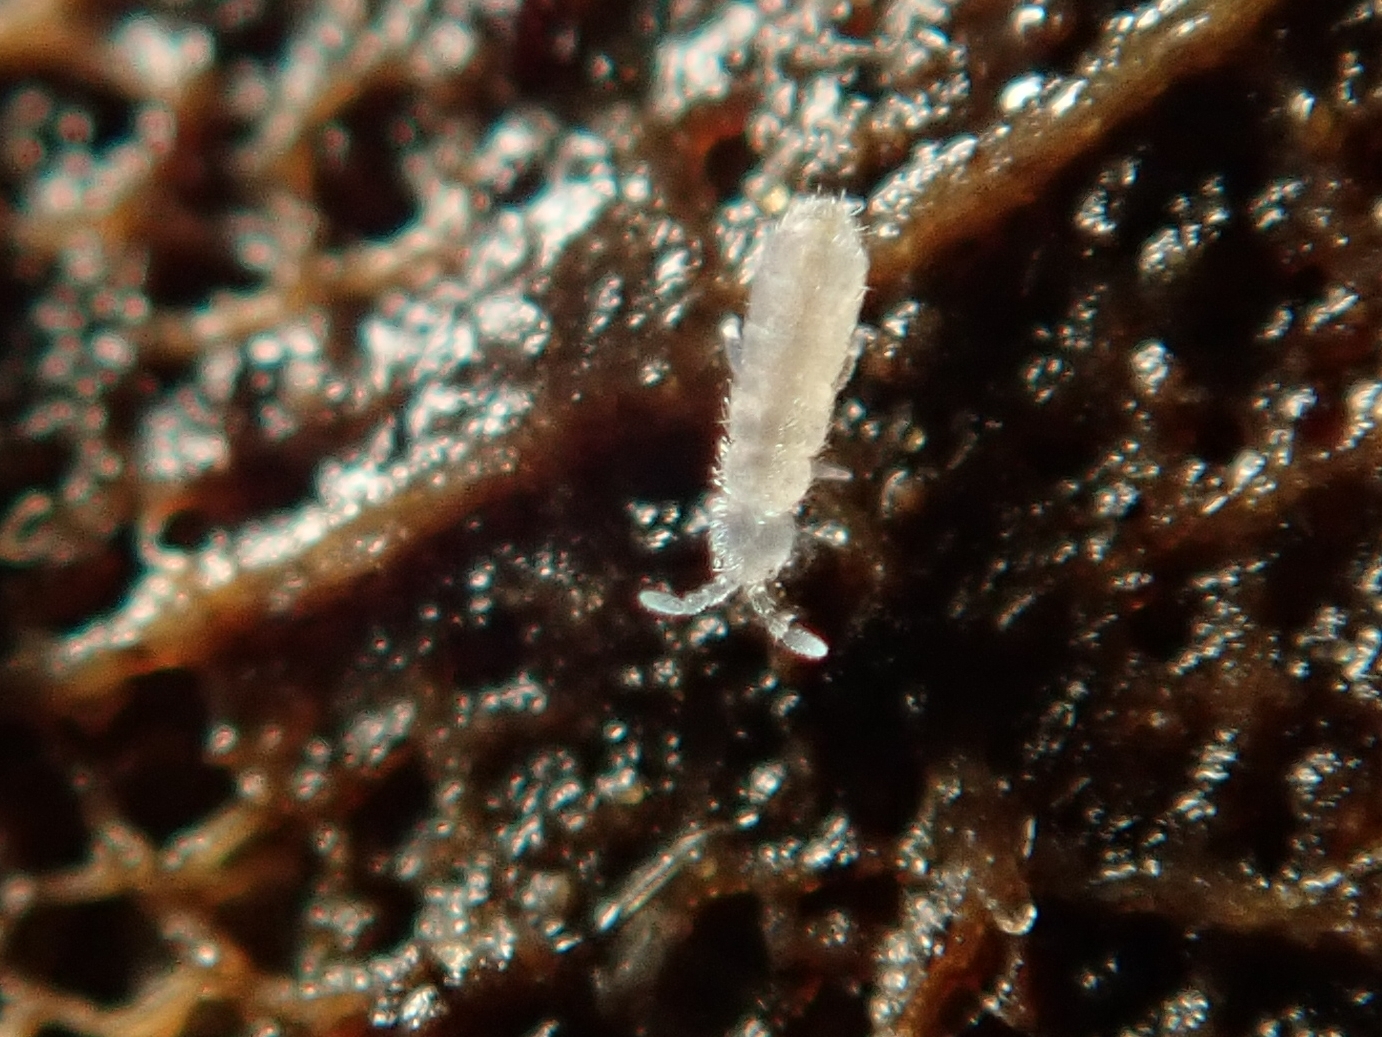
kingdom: Animalia
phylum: Arthropoda
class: Collembola
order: Entomobryomorpha
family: Orchesellidae
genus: Heteromurus
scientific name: Heteromurus nitidus
